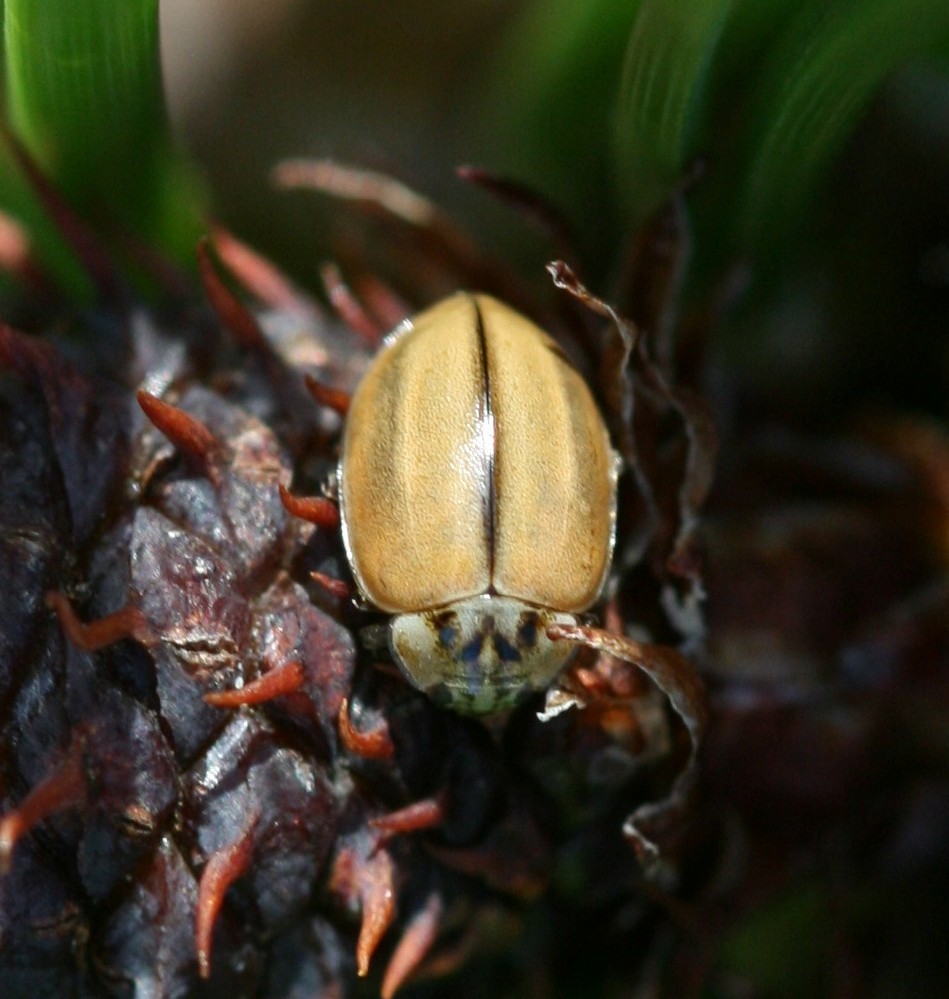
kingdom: Animalia
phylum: Arthropoda
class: Insecta
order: Coleoptera
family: Coccinellidae
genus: Aphidecta
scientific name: Aphidecta obliterata
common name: Larch ladybird
